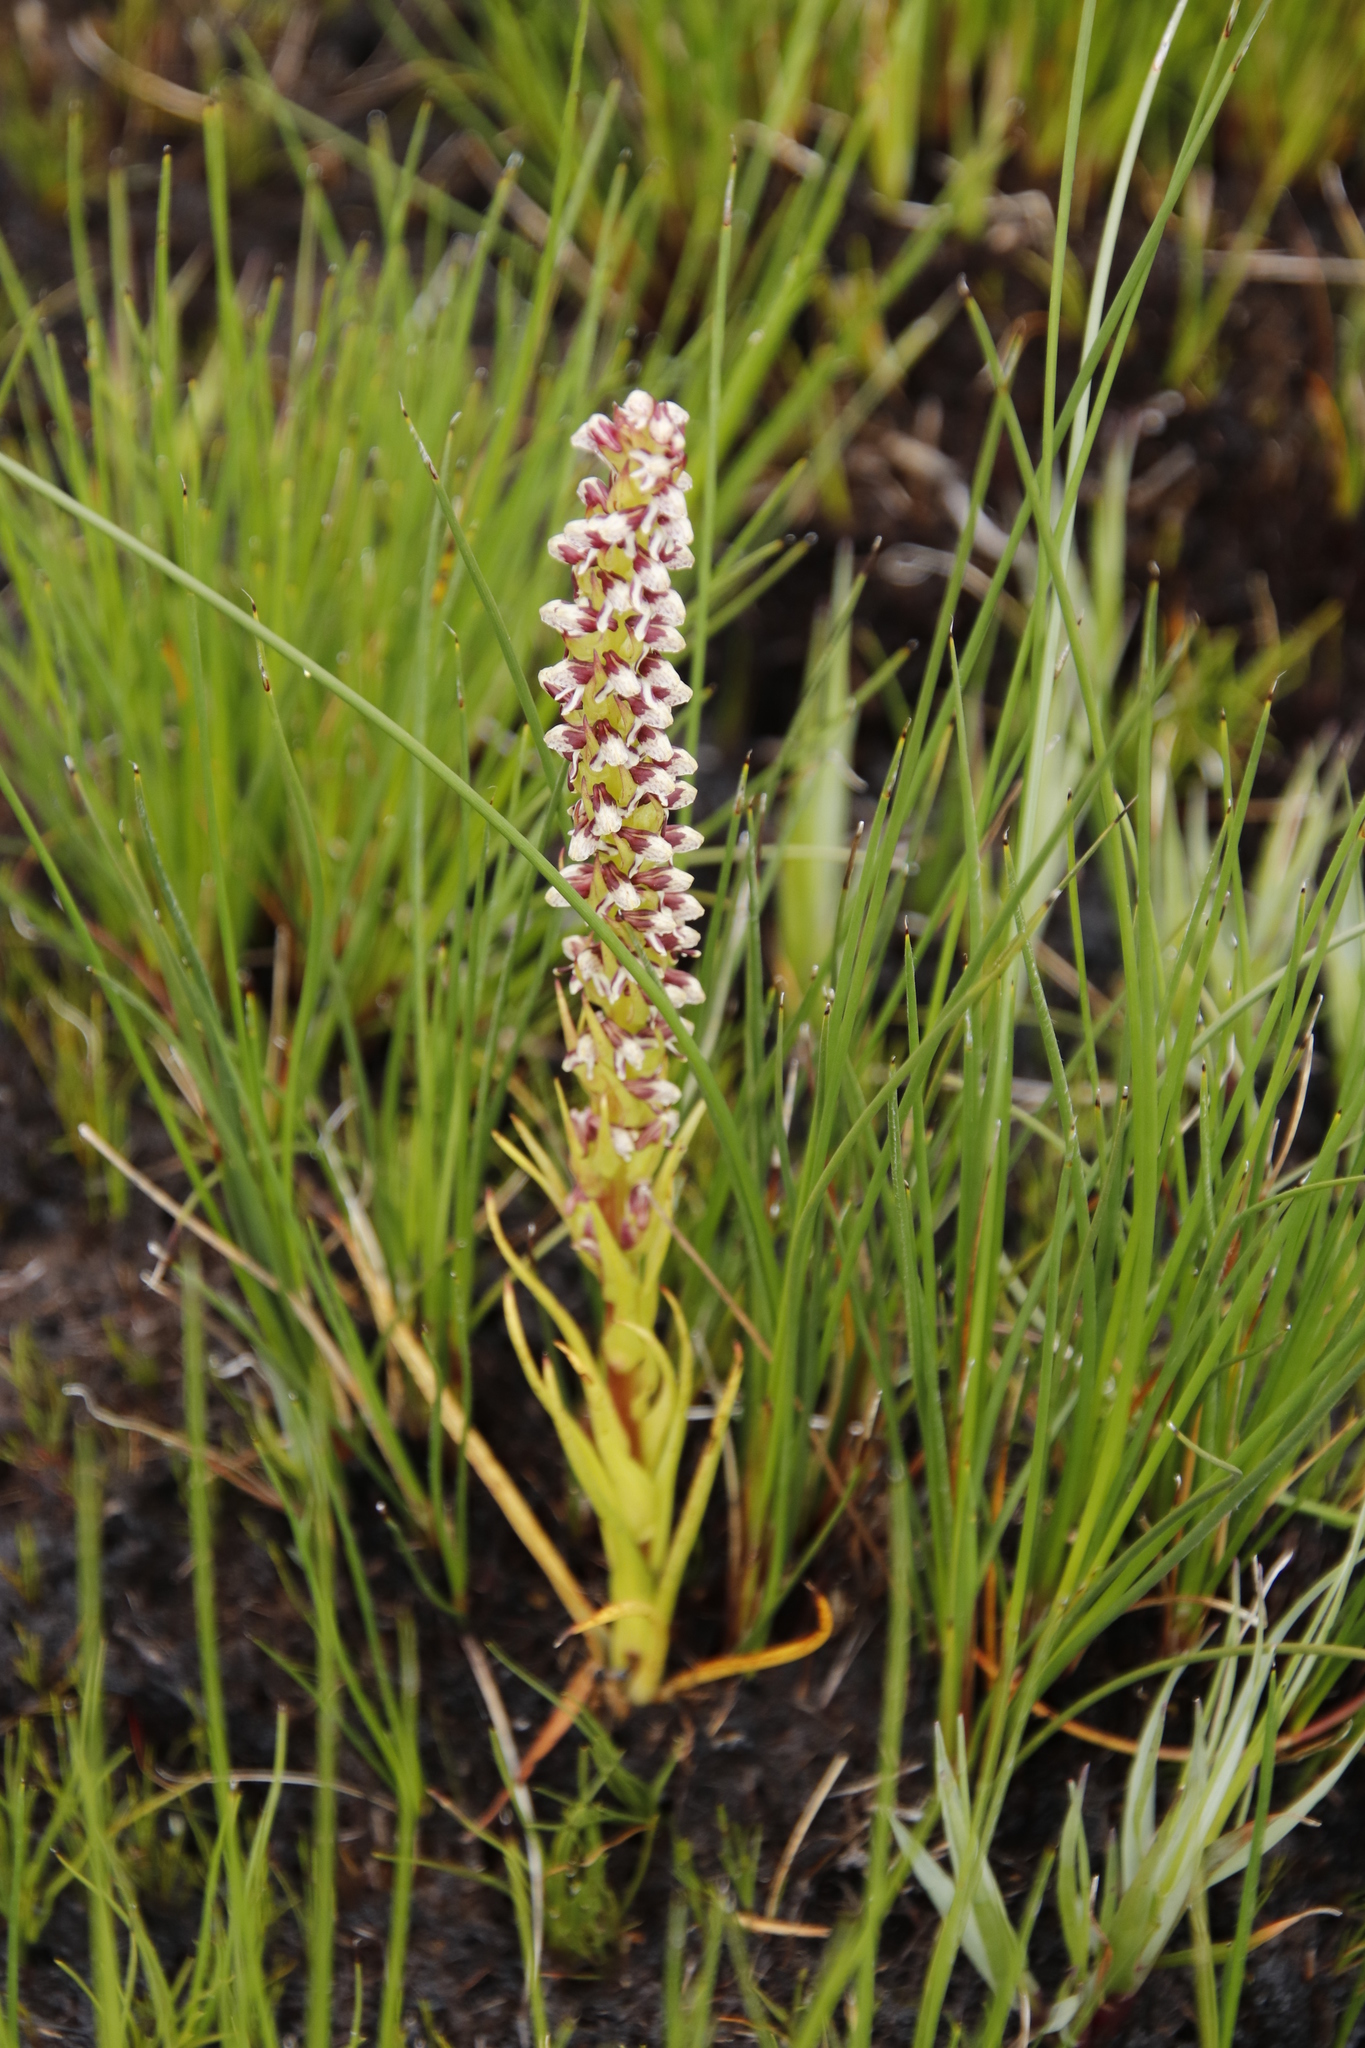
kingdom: Plantae
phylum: Tracheophyta
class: Liliopsida
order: Asparagales
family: Orchidaceae
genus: Disa
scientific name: Disa obtusa
